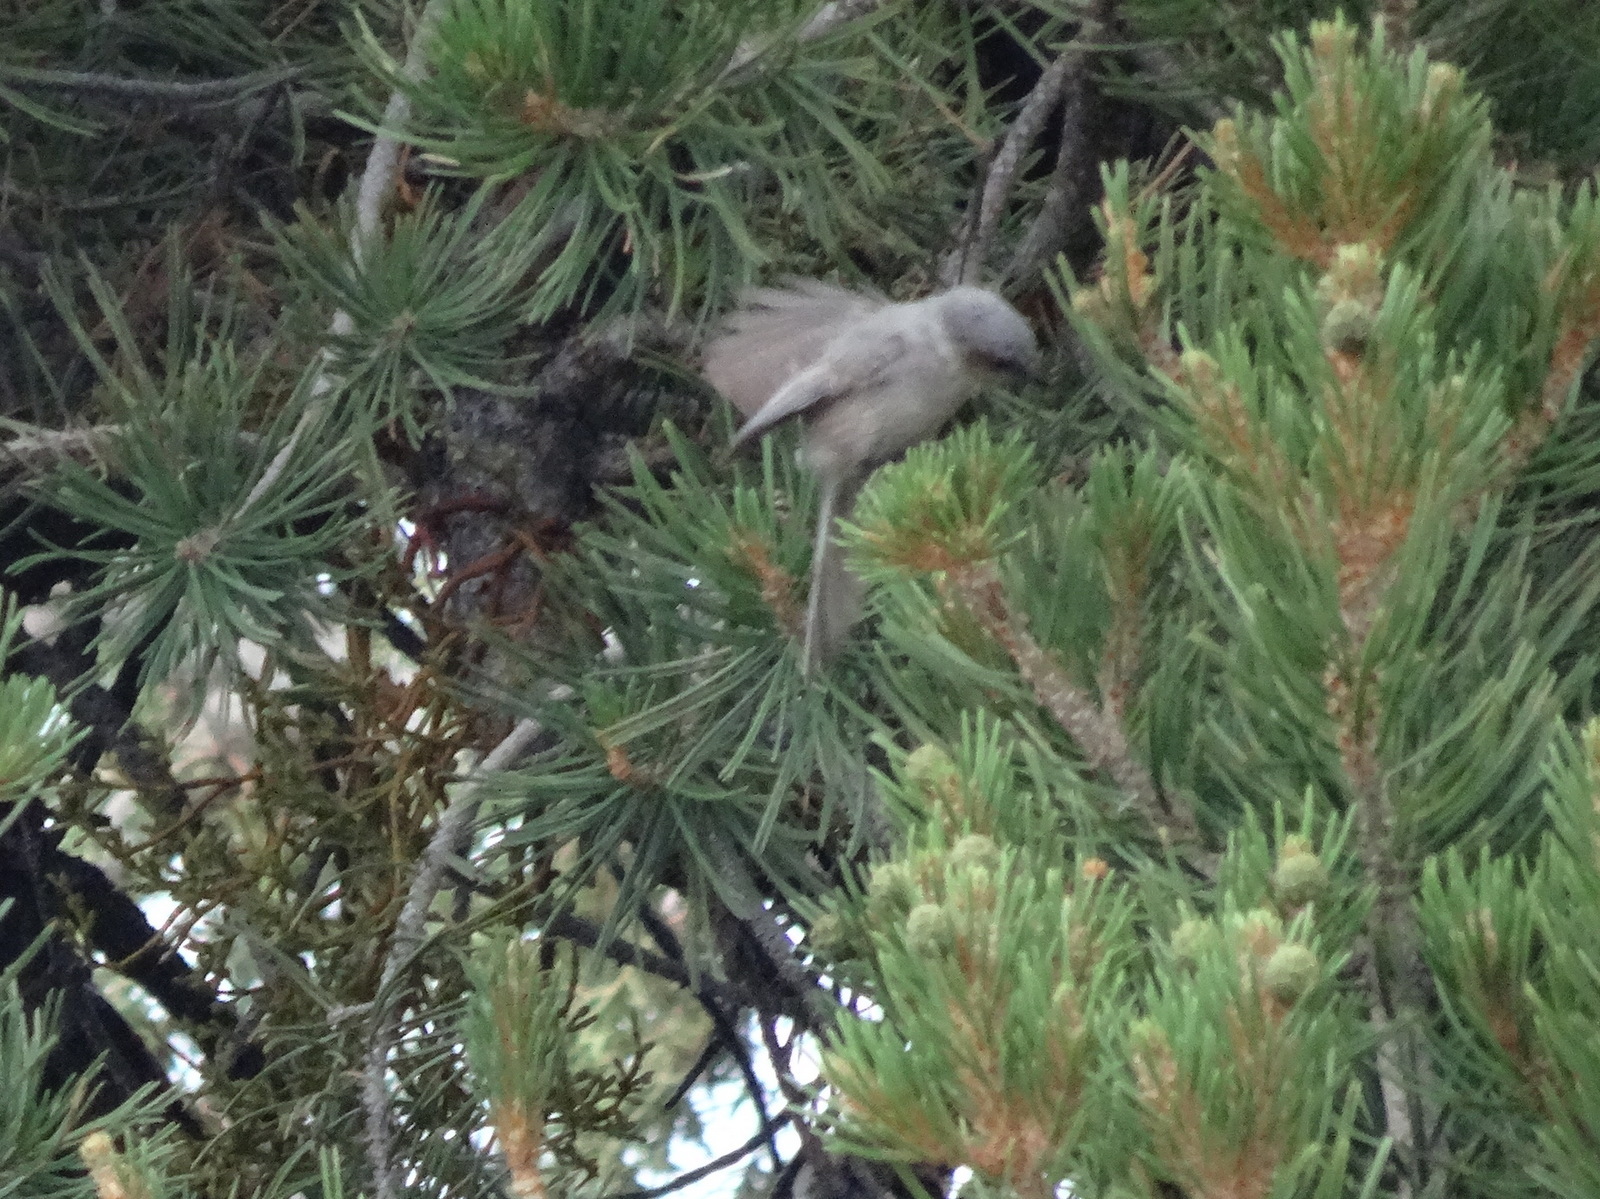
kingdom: Animalia
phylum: Chordata
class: Aves
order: Passeriformes
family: Aegithalidae
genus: Psaltriparus
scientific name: Psaltriparus minimus
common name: American bushtit
